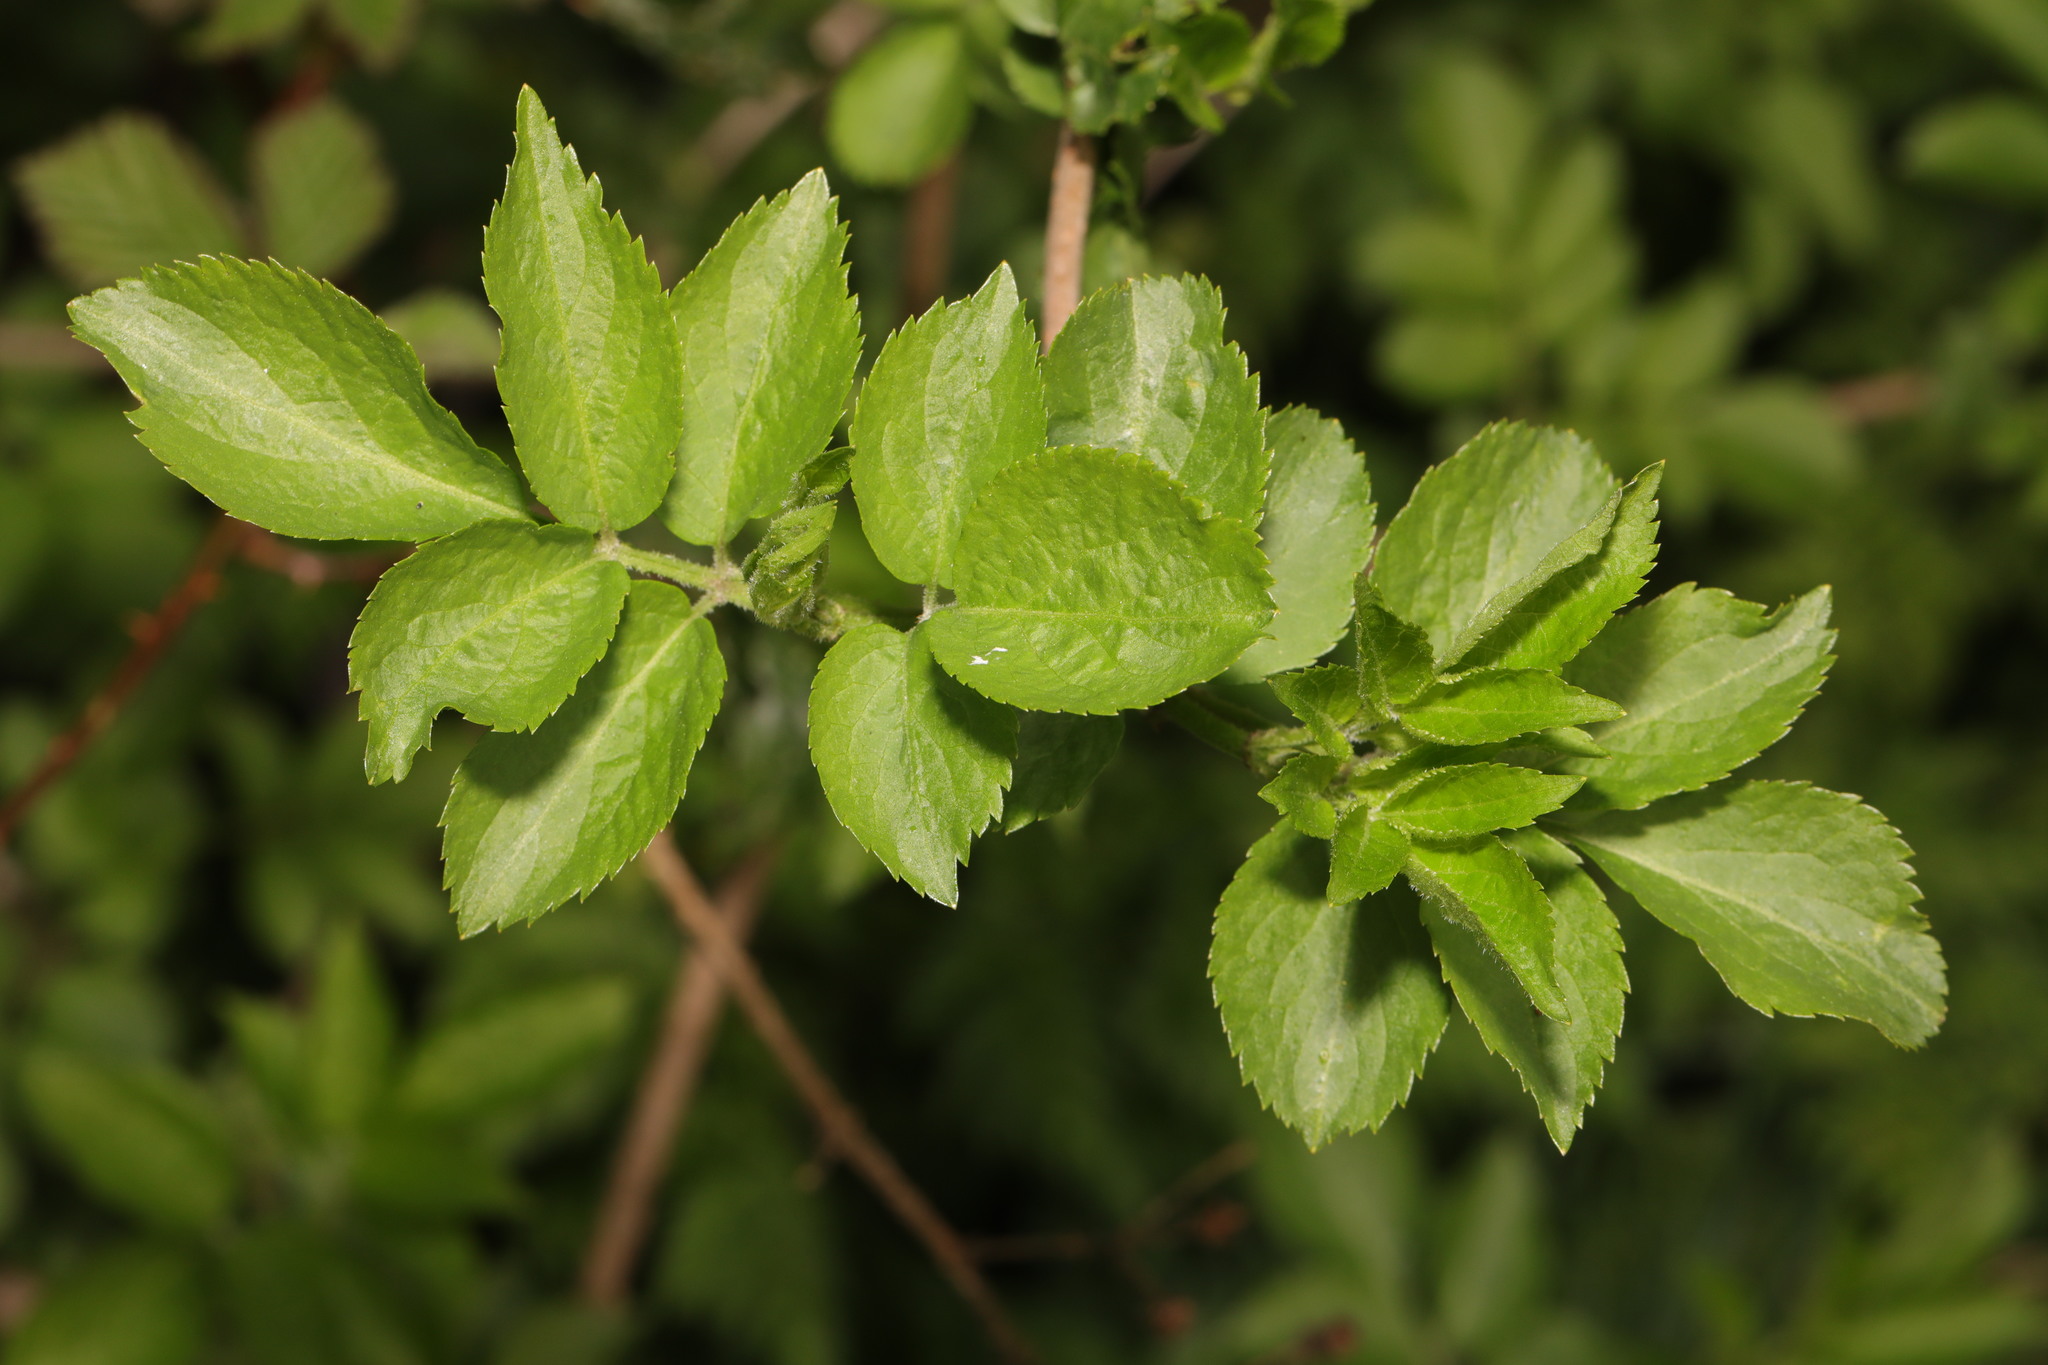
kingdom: Plantae
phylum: Tracheophyta
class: Magnoliopsida
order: Dipsacales
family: Viburnaceae
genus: Sambucus
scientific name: Sambucus nigra
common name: Elder
